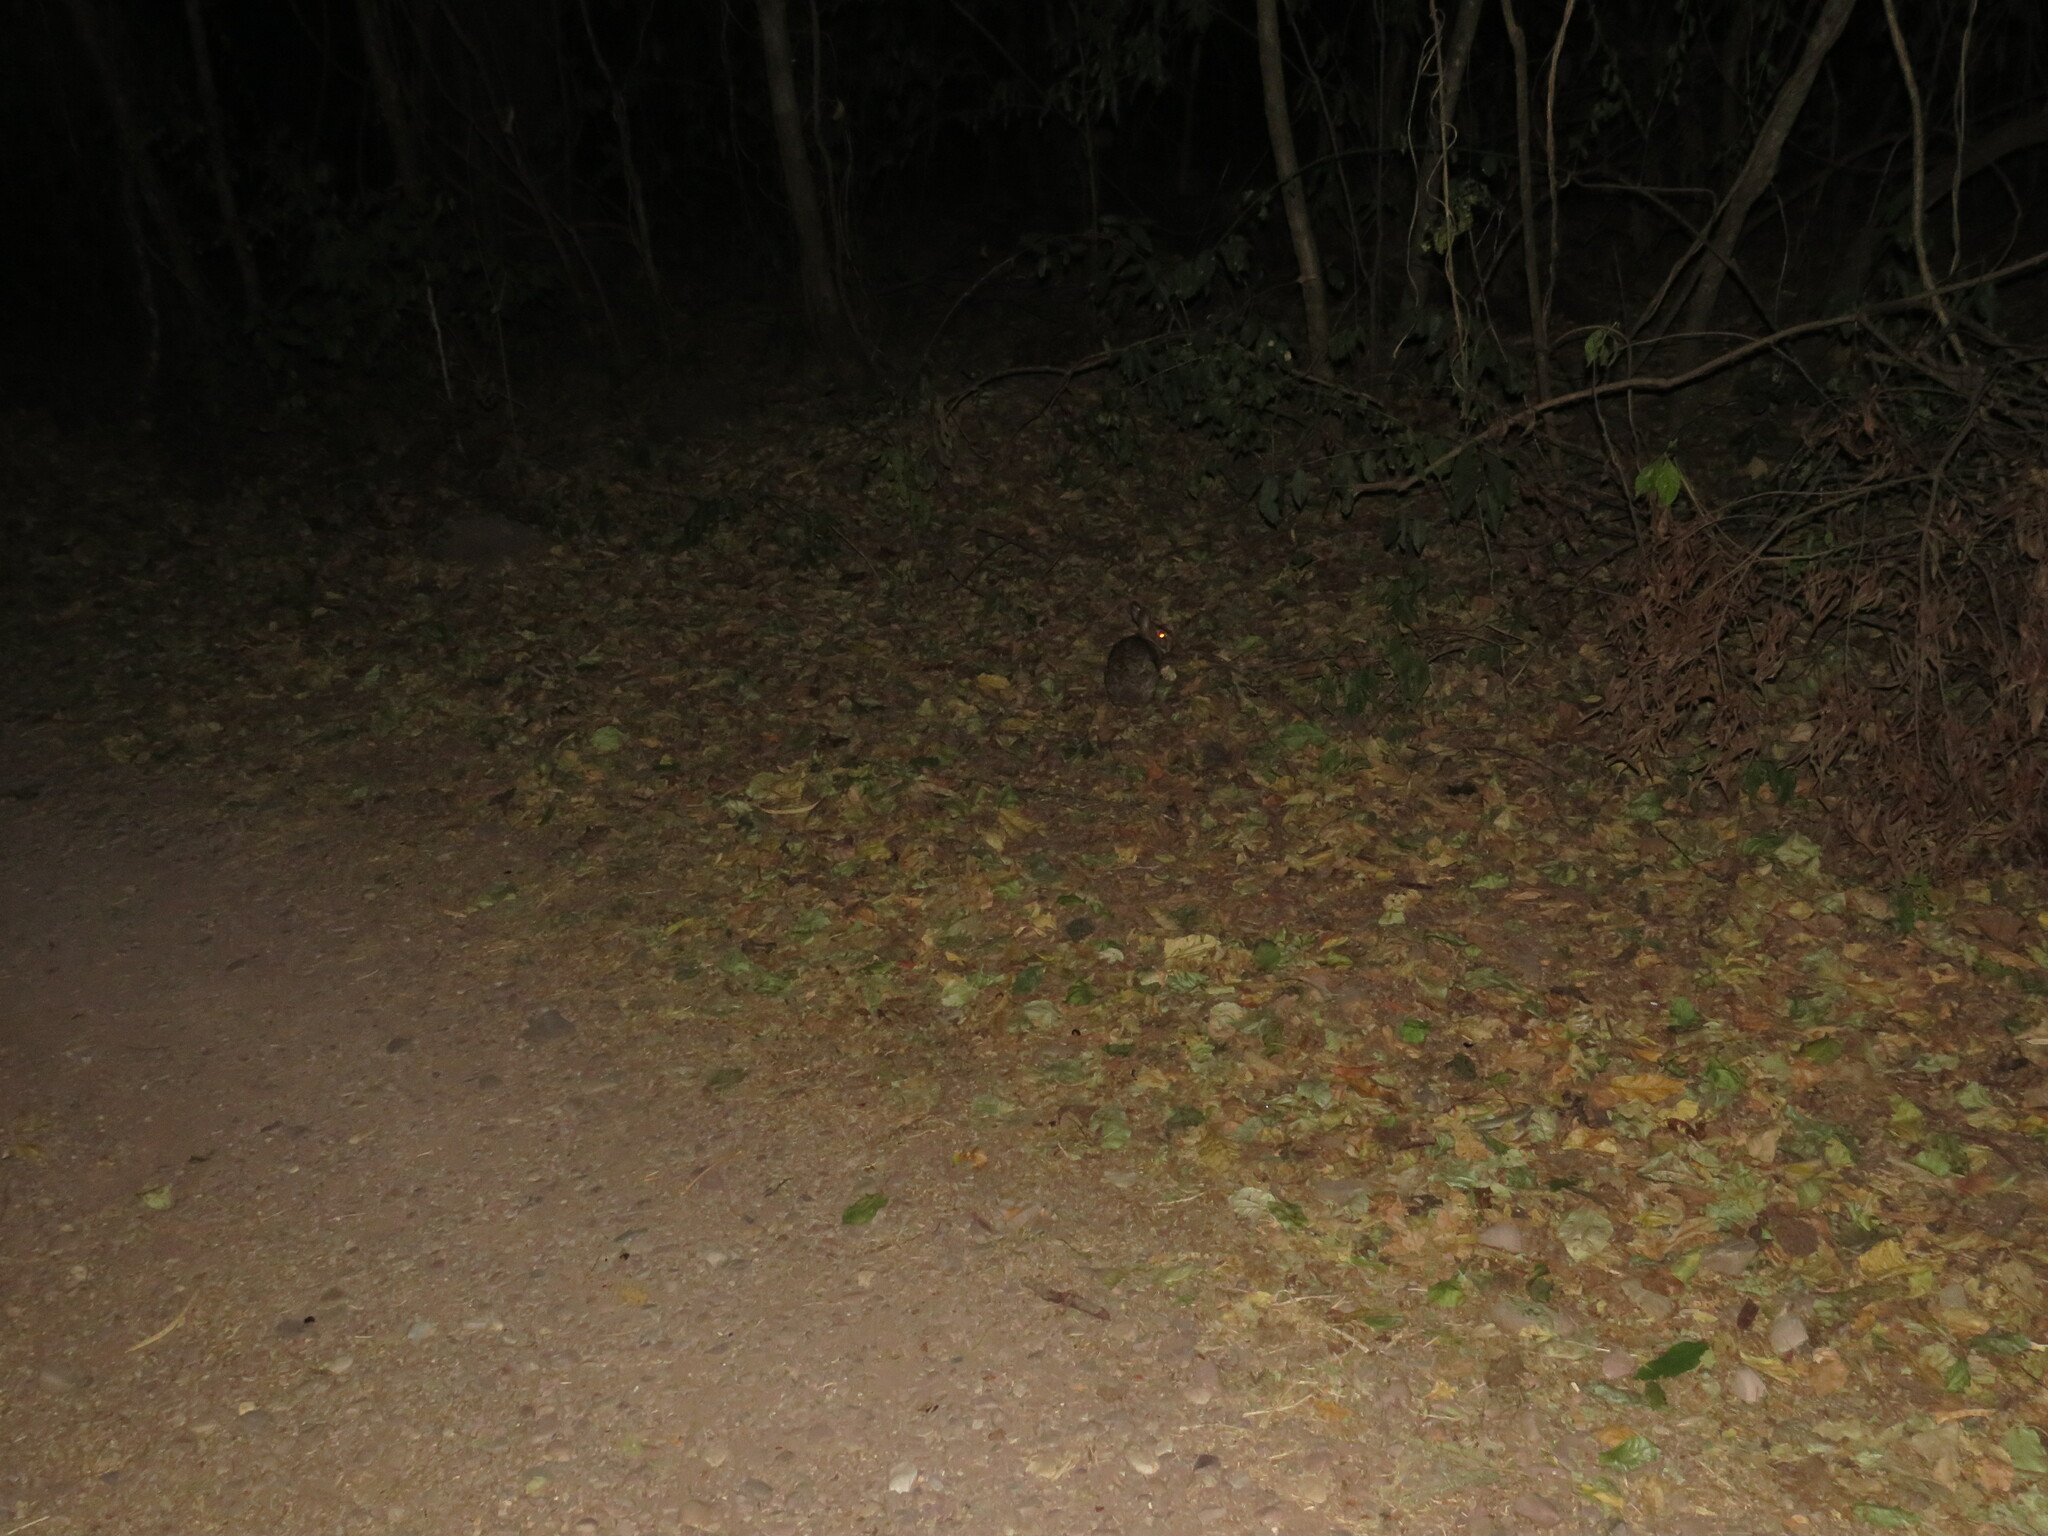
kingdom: Animalia
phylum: Chordata
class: Mammalia
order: Lagomorpha
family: Leporidae
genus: Sylvilagus
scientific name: Sylvilagus brasiliensis
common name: Tapeti
